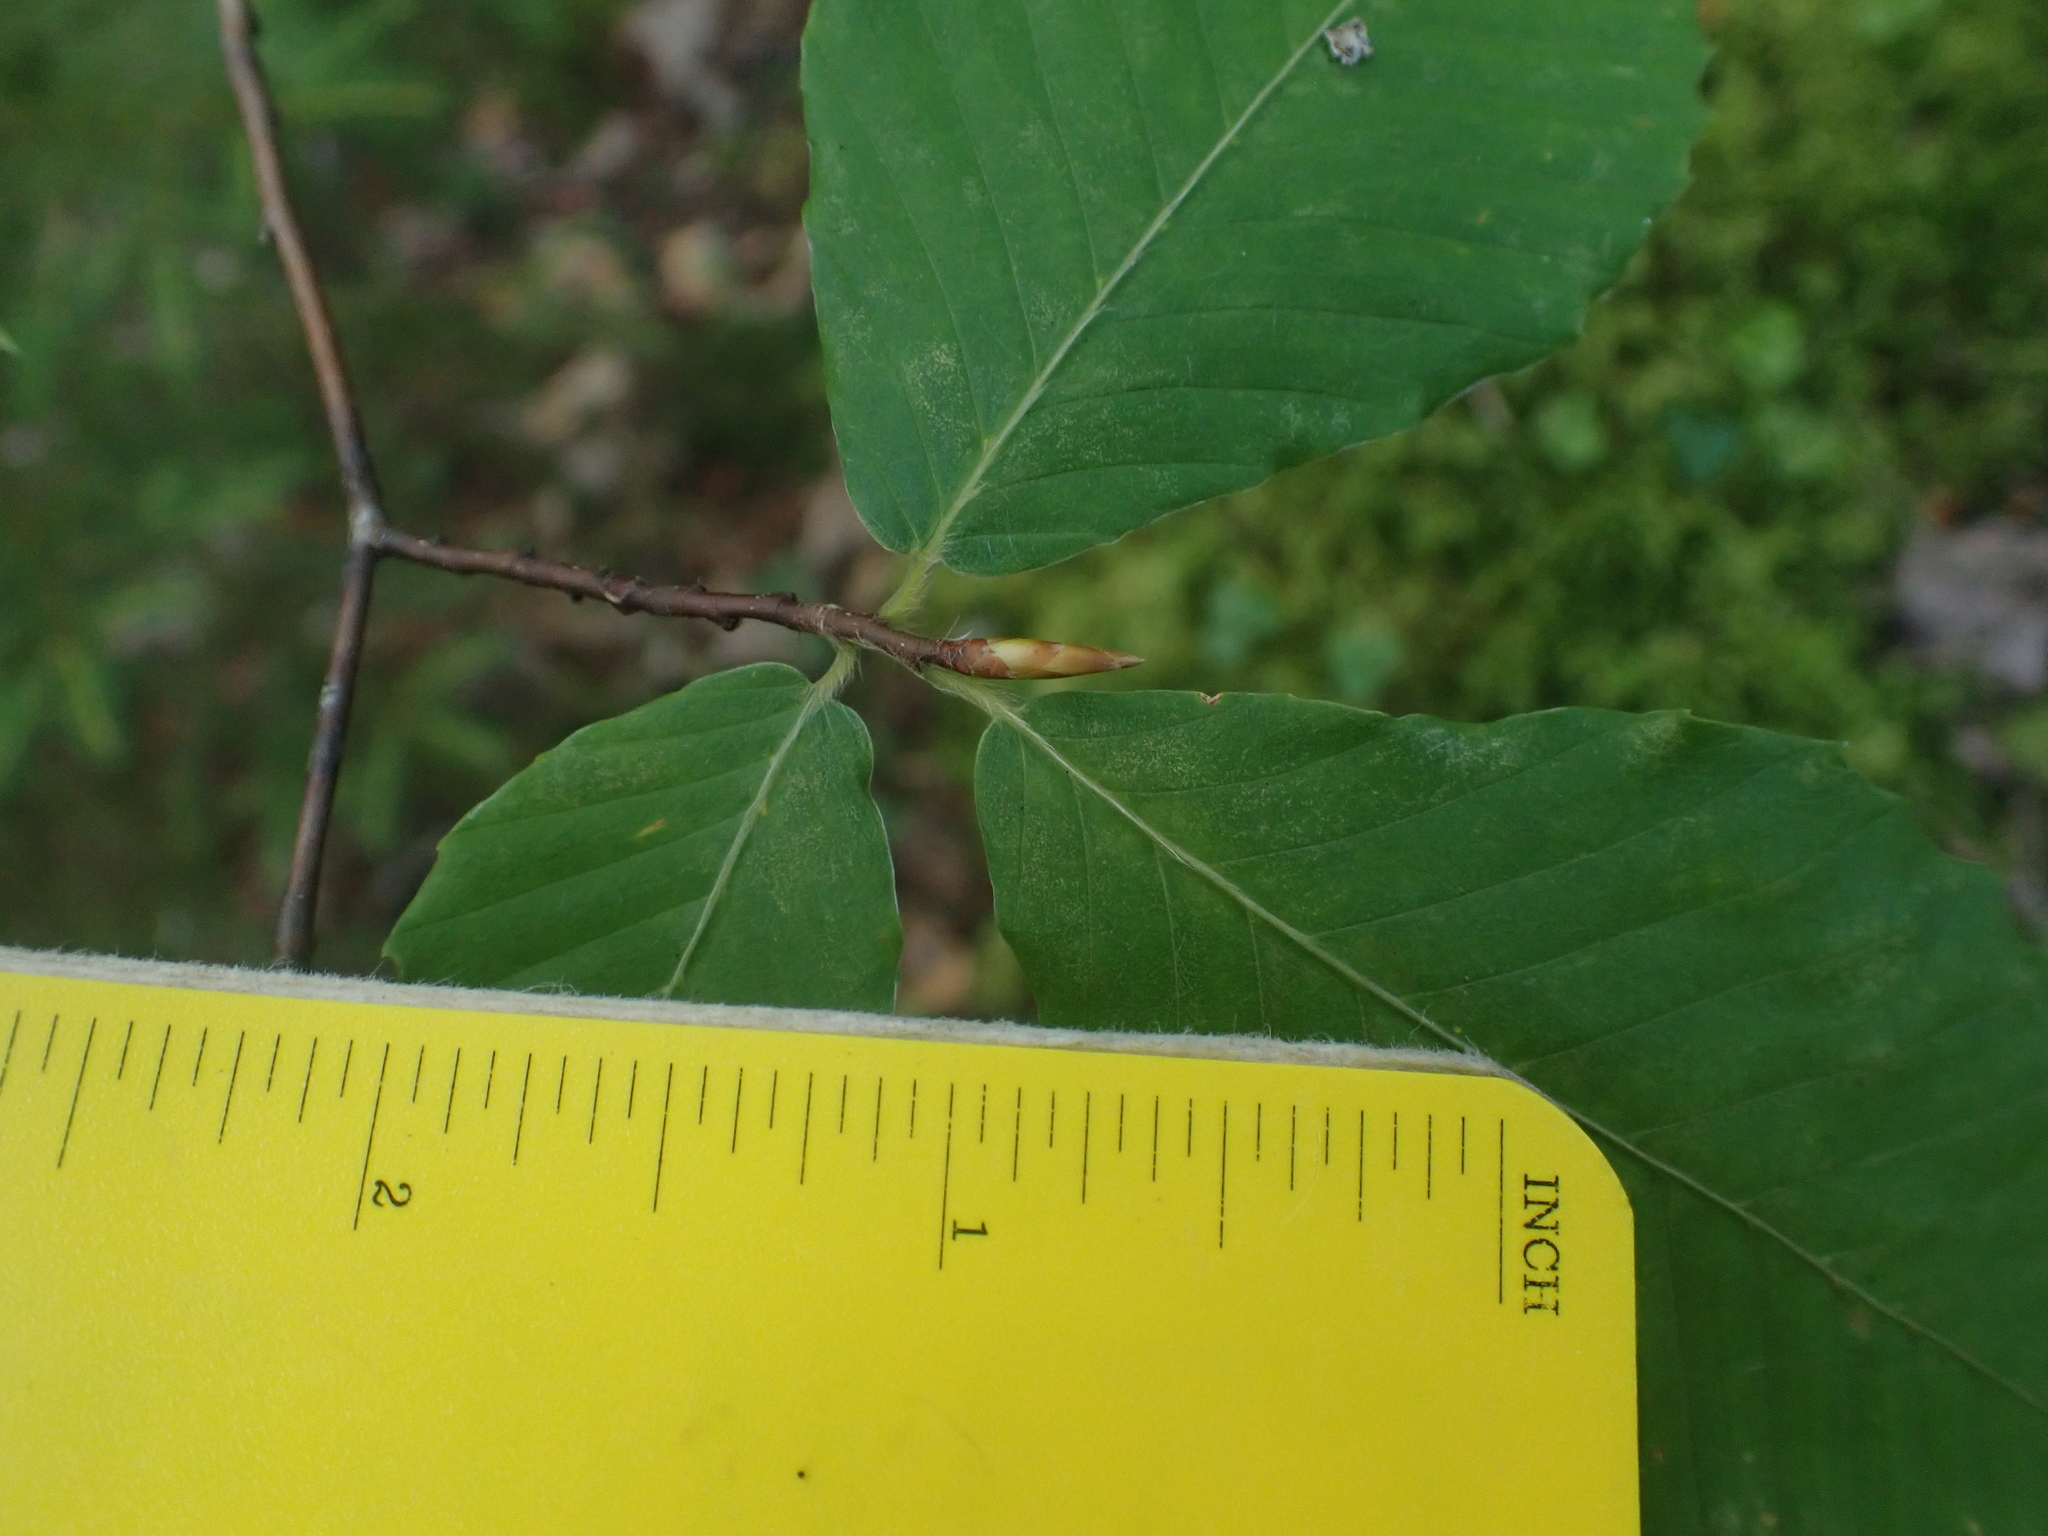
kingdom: Plantae
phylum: Tracheophyta
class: Magnoliopsida
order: Fagales
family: Fagaceae
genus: Fagus
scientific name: Fagus grandifolia
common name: American beech
